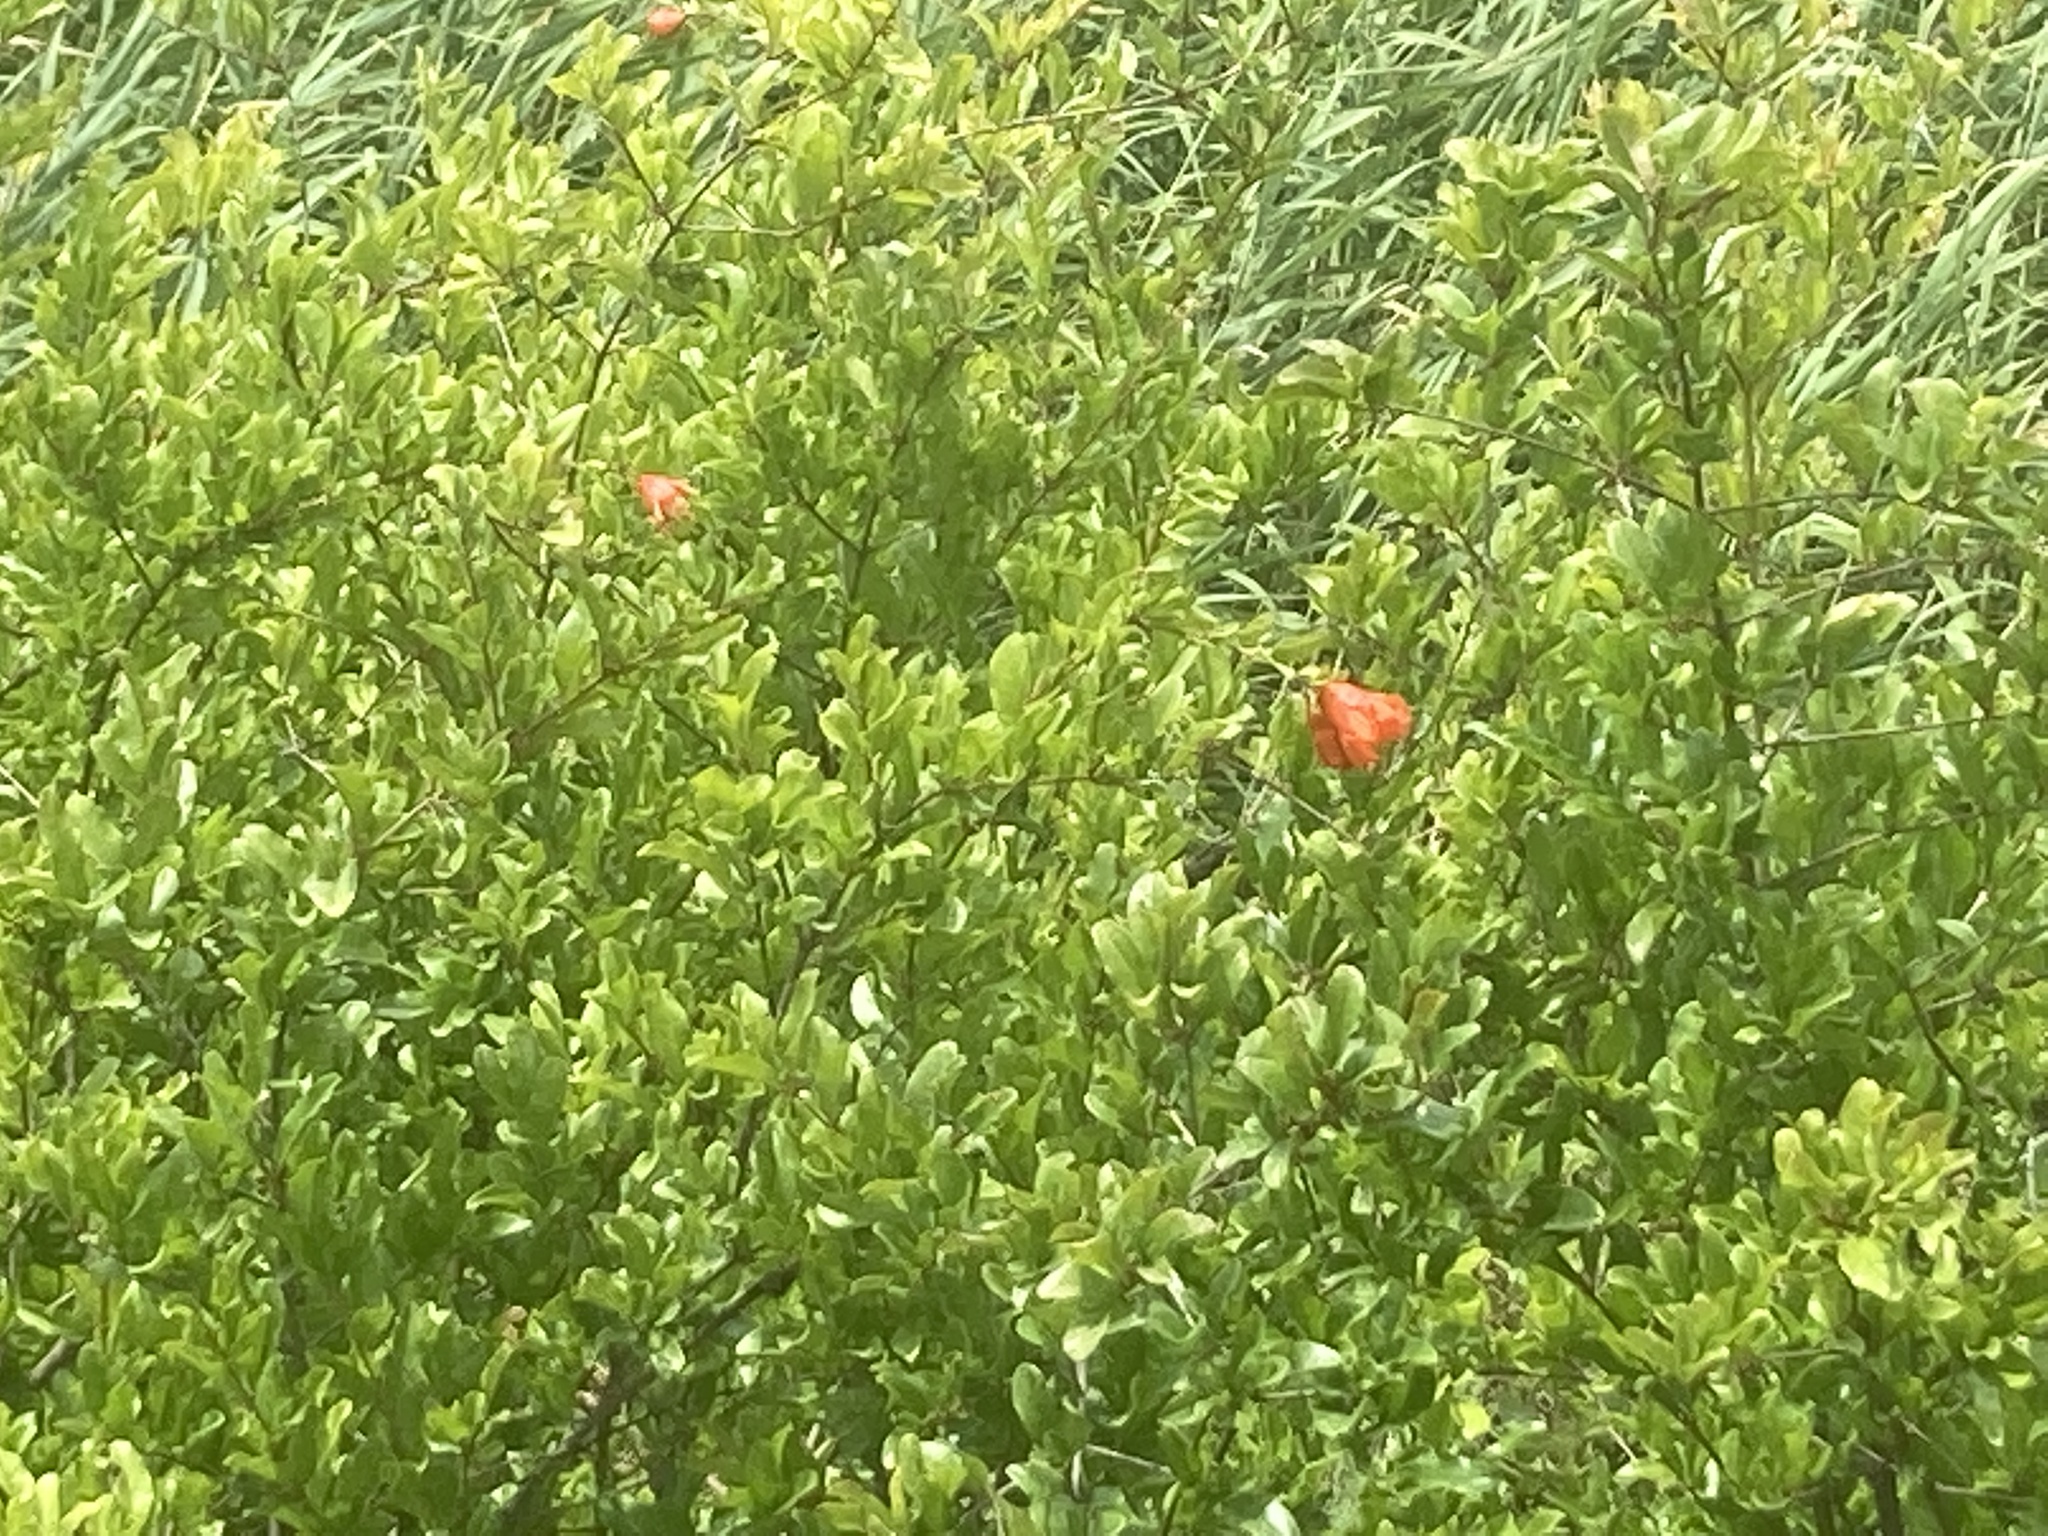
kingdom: Plantae
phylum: Tracheophyta
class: Magnoliopsida
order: Myrtales
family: Lythraceae
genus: Punica
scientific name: Punica granatum
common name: Pomegranate
